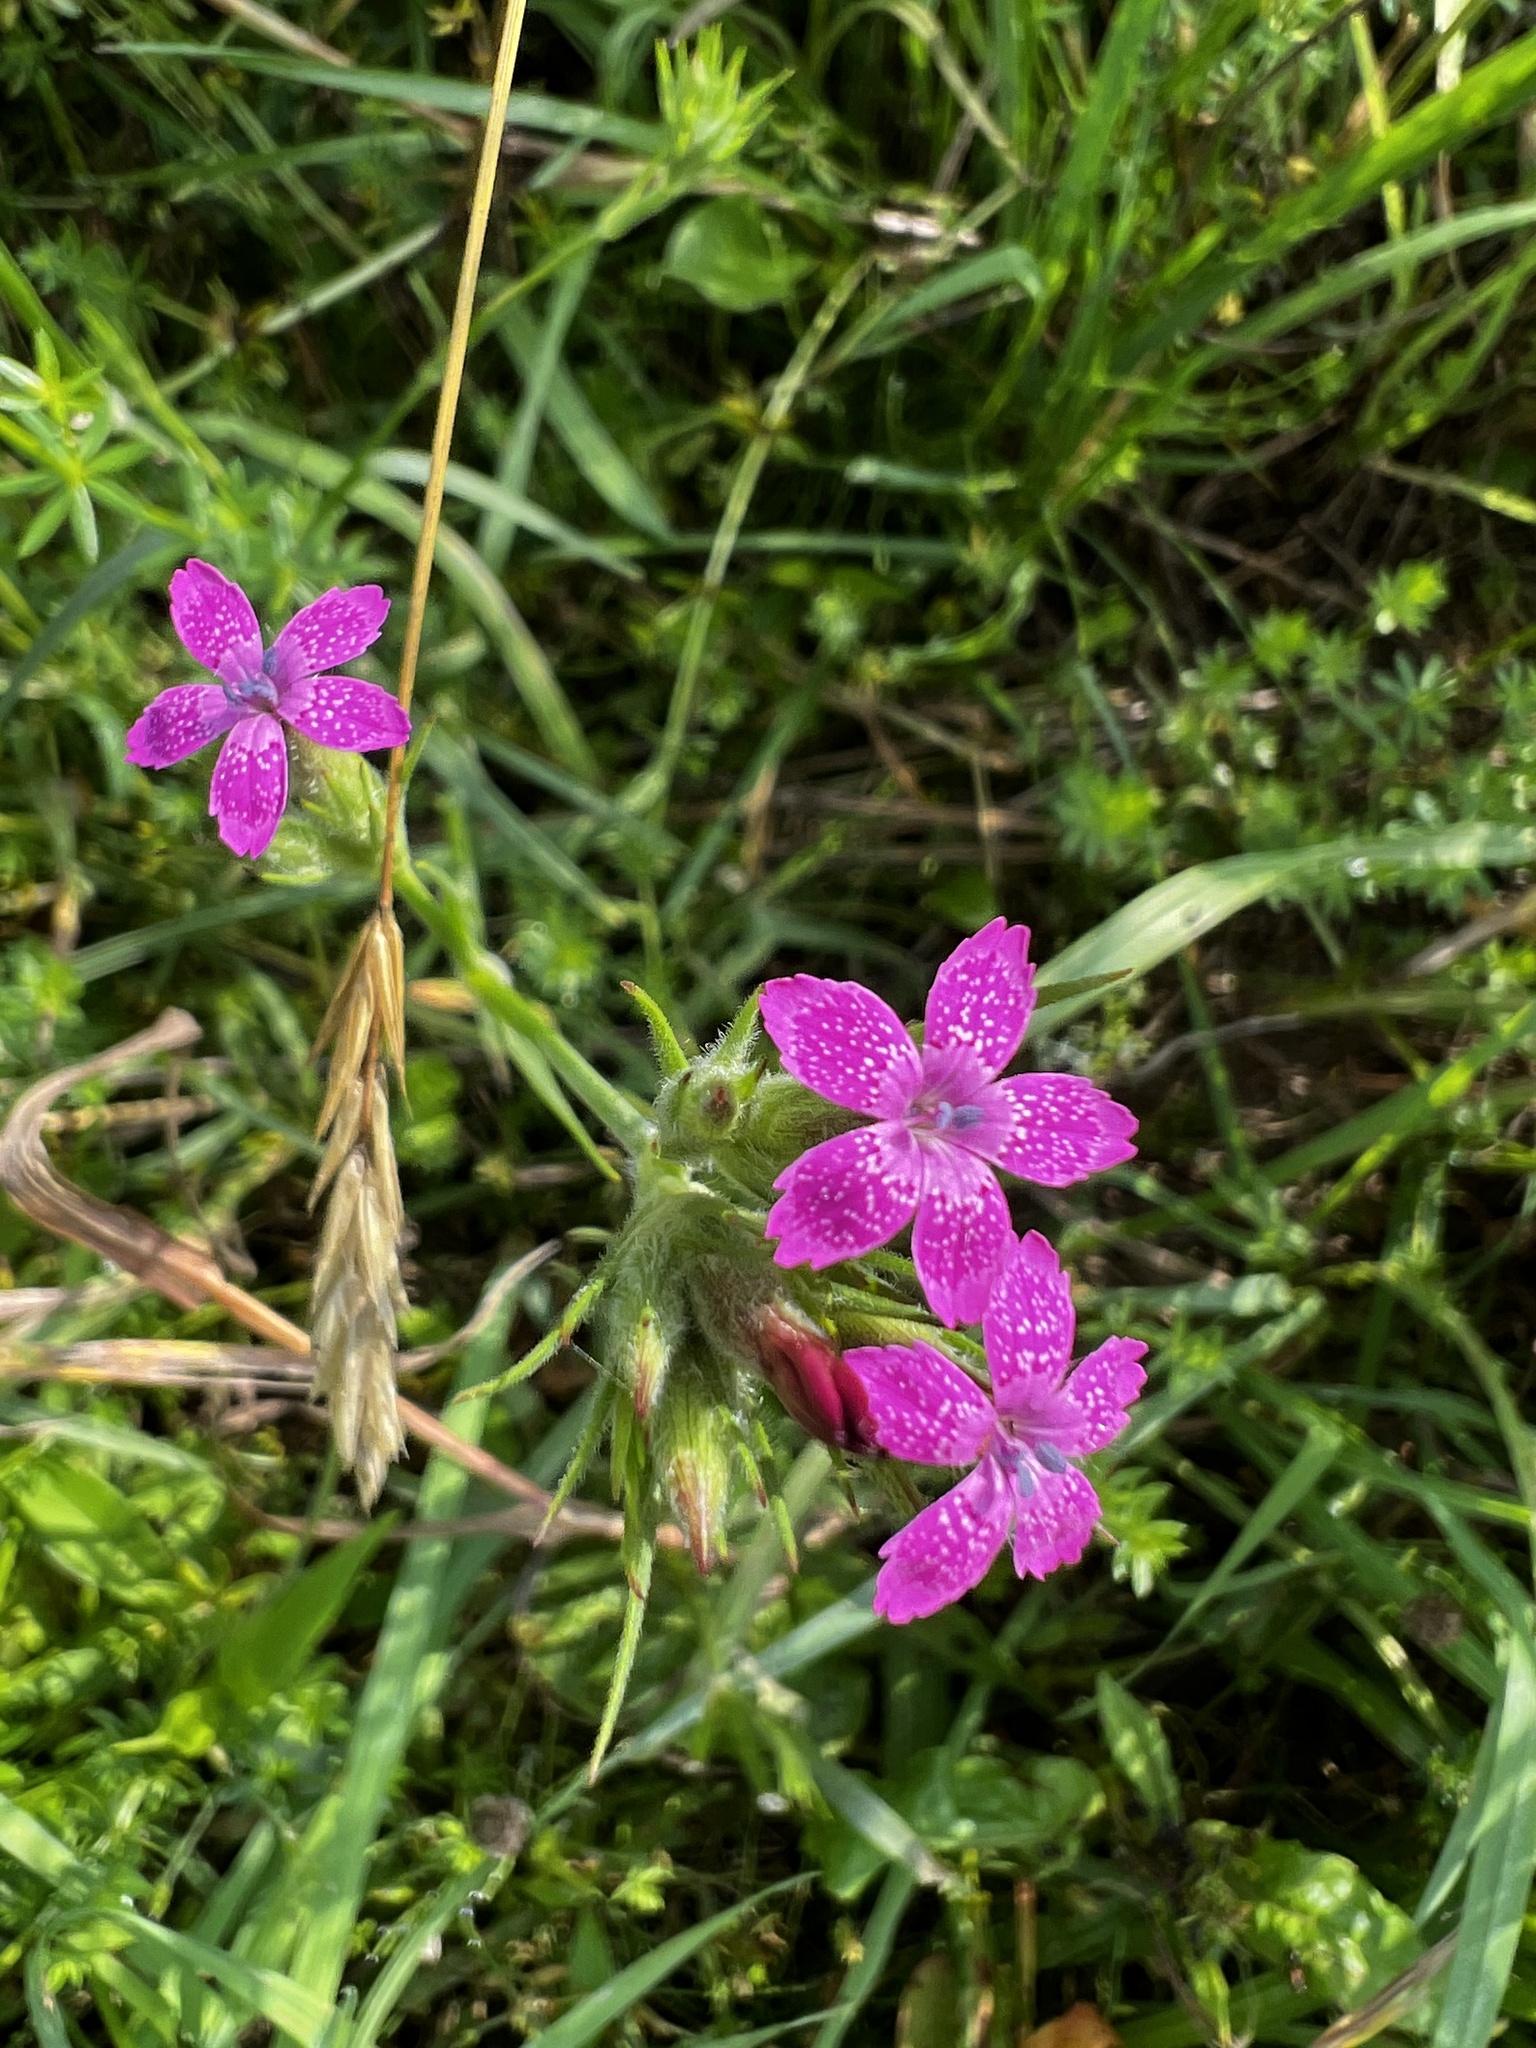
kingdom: Plantae
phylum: Tracheophyta
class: Magnoliopsida
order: Caryophyllales
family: Caryophyllaceae
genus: Dianthus
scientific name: Dianthus armeria
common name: Deptford pink
